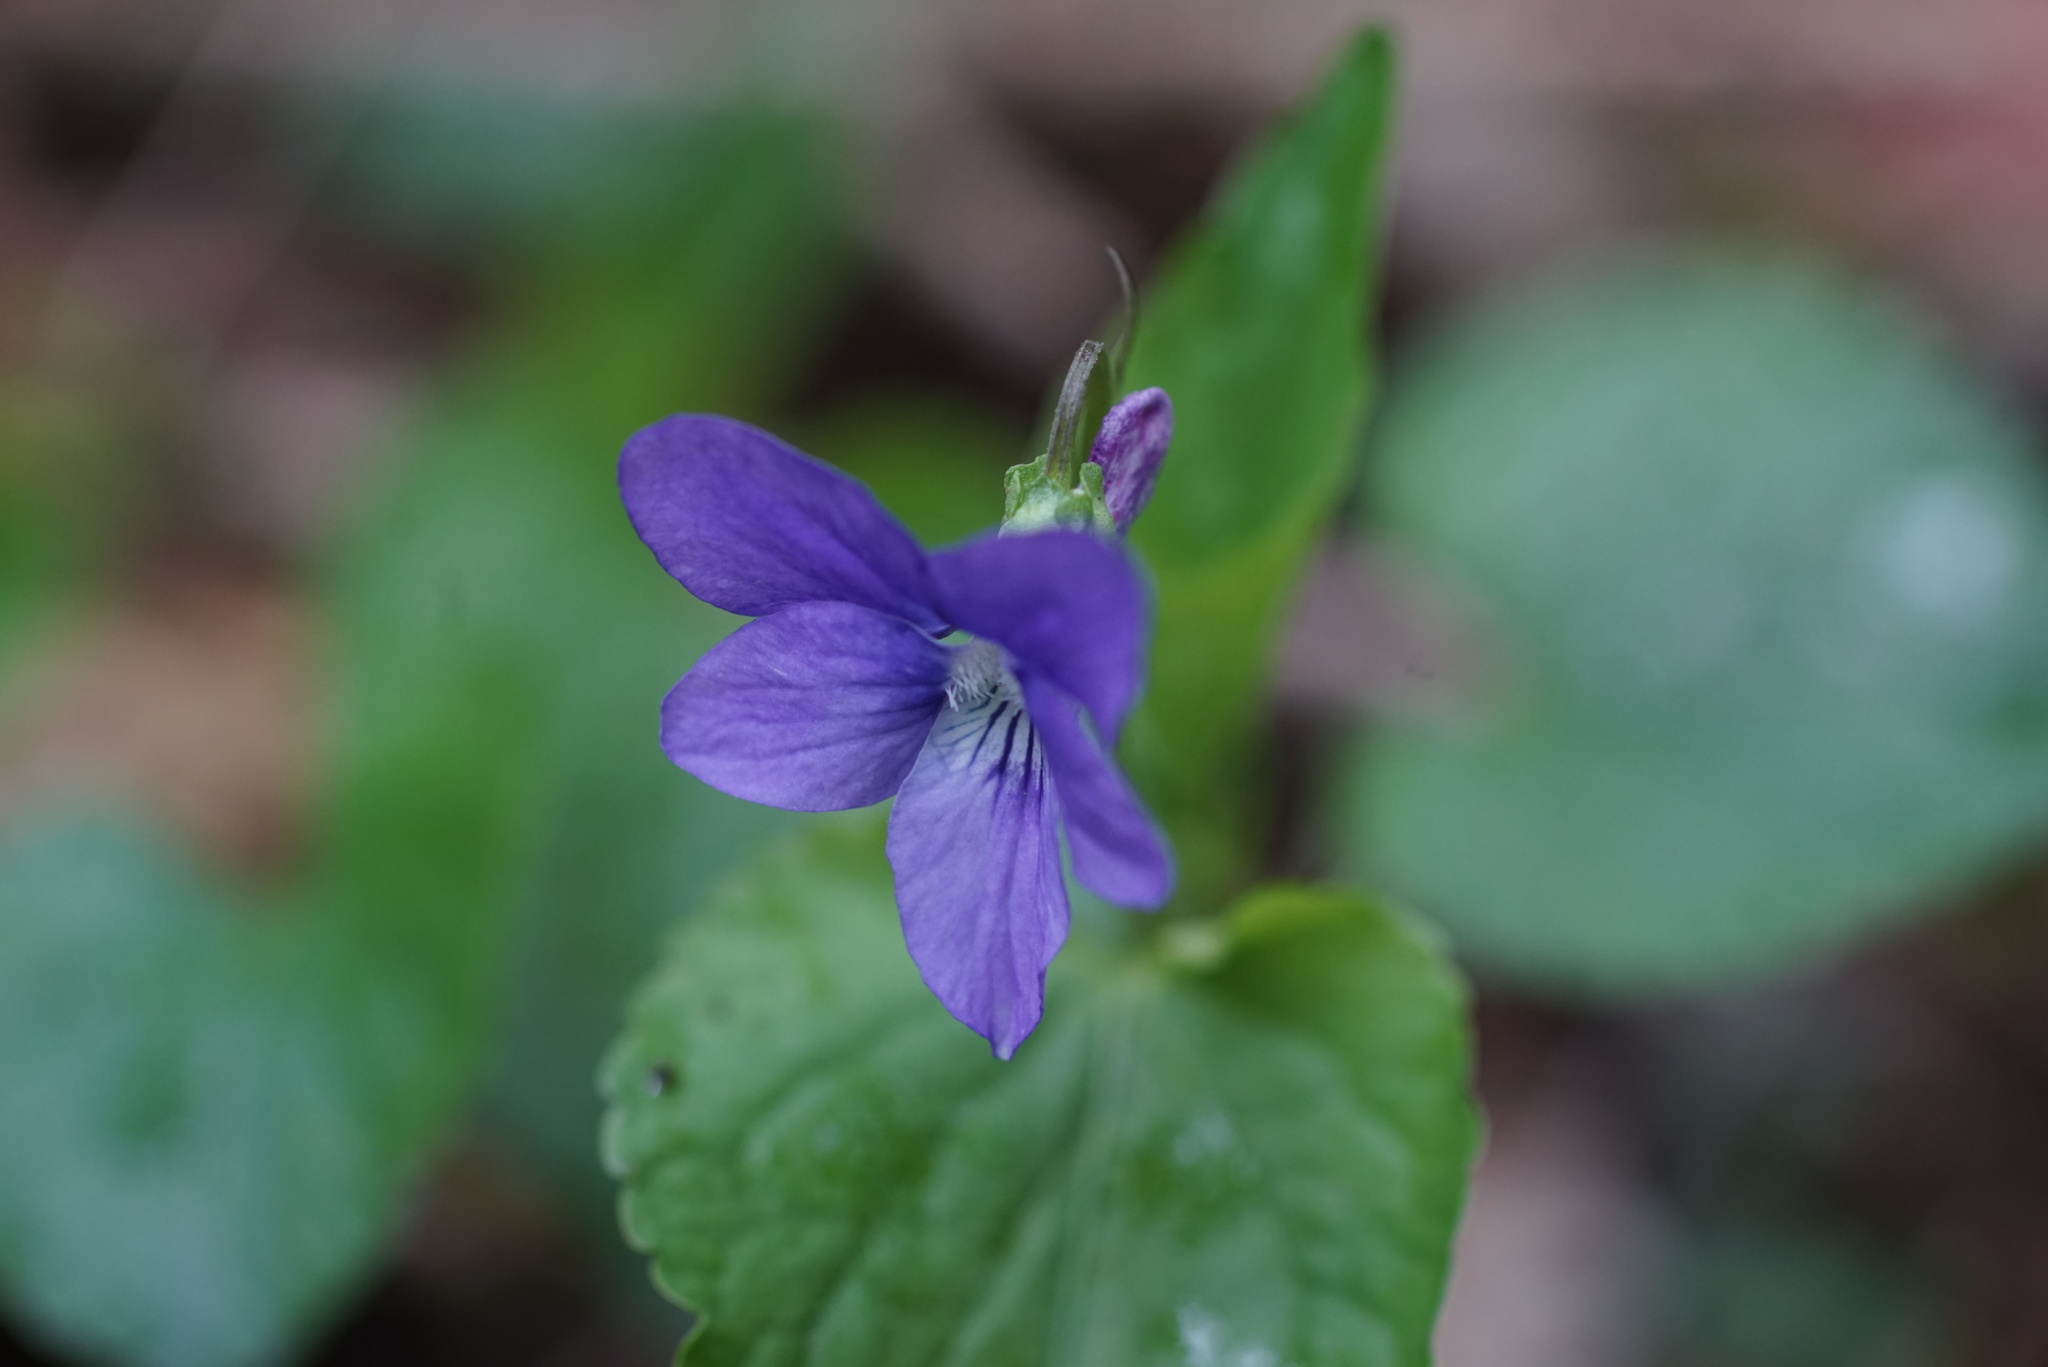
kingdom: Plantae
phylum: Tracheophyta
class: Magnoliopsida
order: Malpighiales
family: Violaceae
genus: Viola
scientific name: Viola reichenbachiana
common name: Early dog-violet
